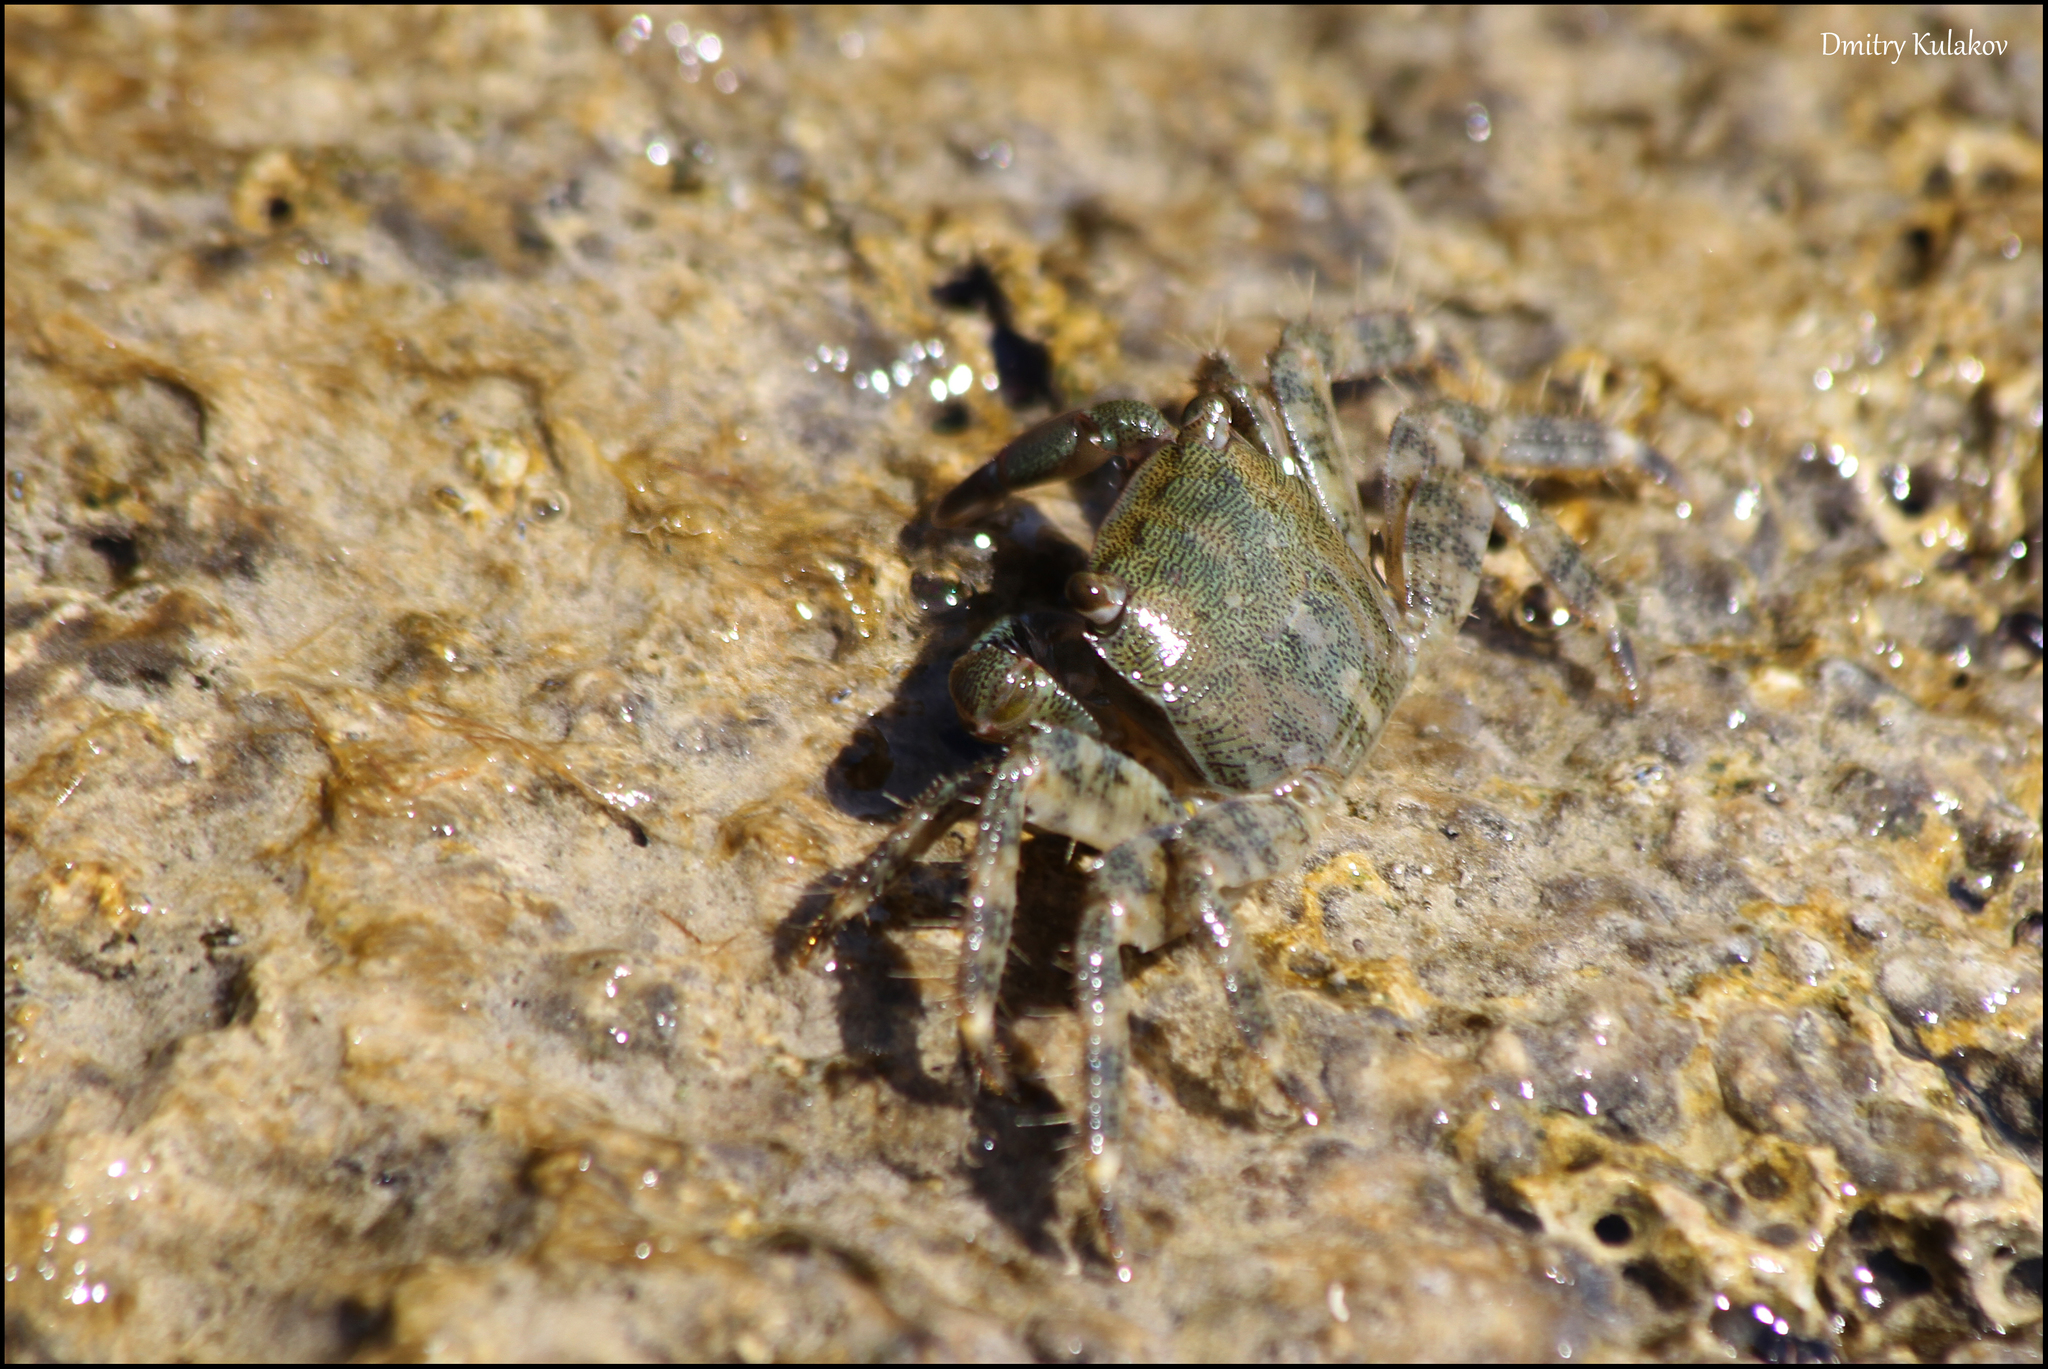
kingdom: Animalia
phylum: Arthropoda
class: Malacostraca
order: Decapoda
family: Grapsidae
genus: Pachygrapsus
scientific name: Pachygrapsus marmoratus
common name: Marbled rock crab
